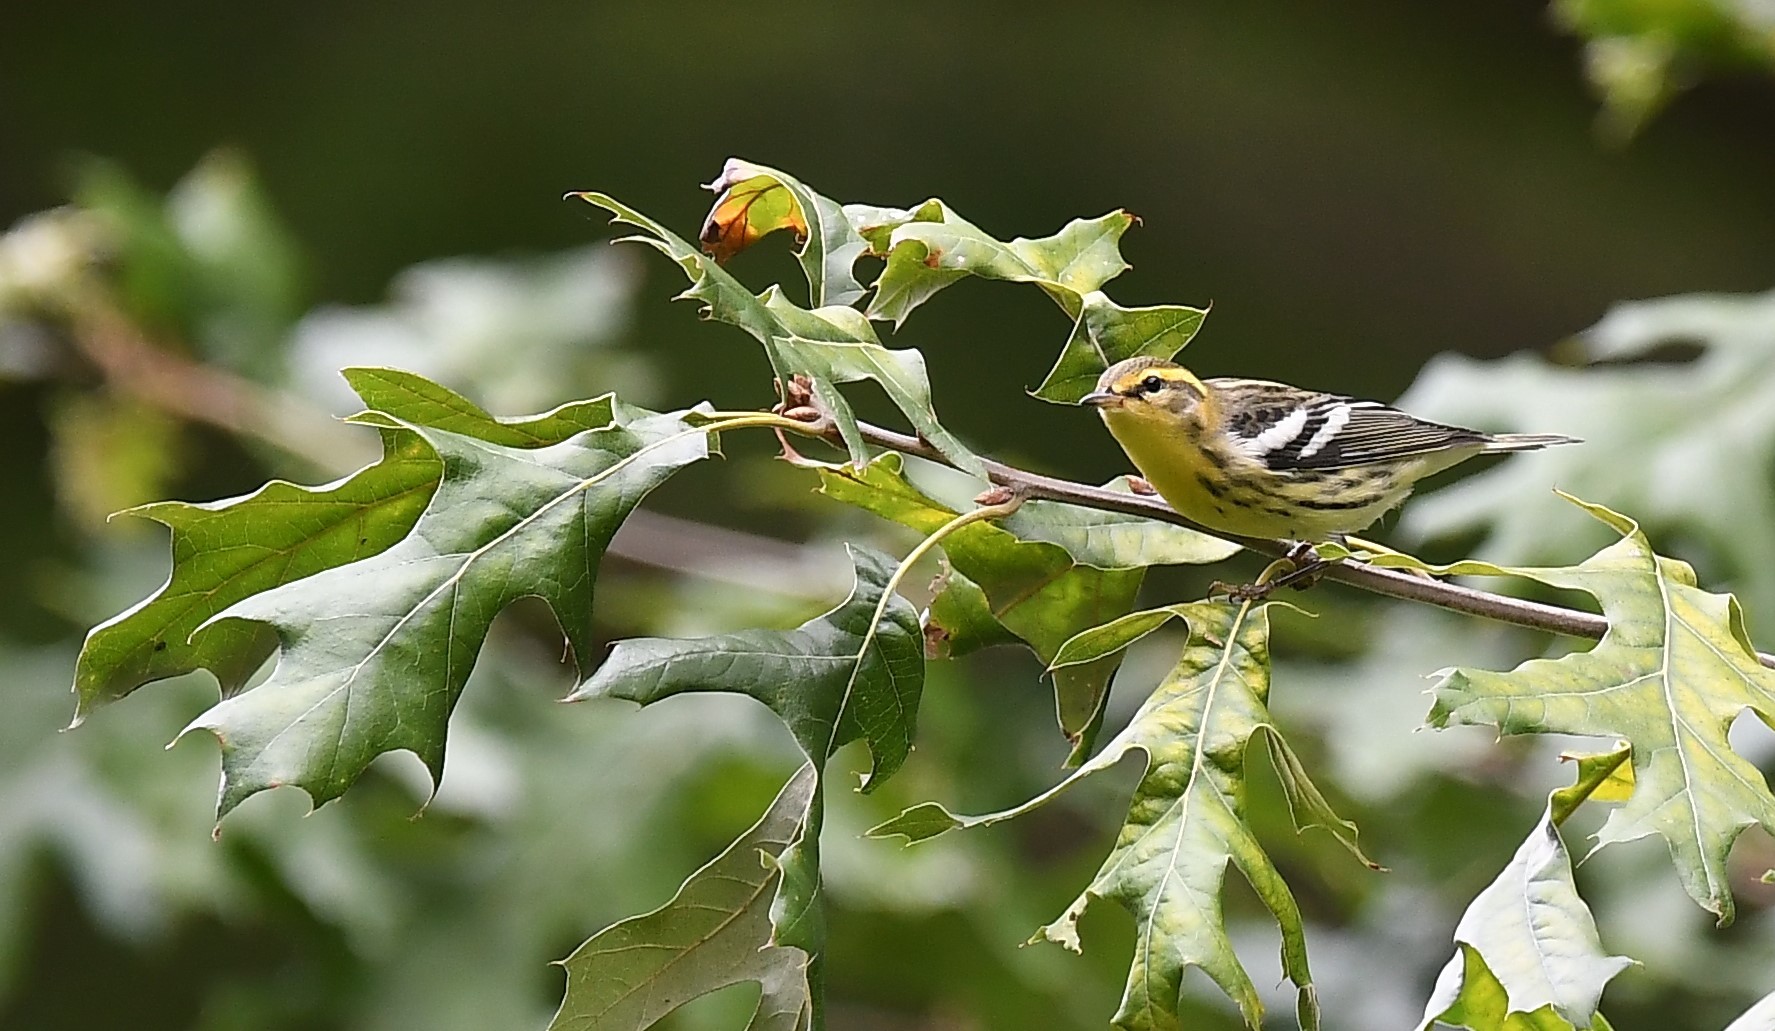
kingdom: Animalia
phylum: Chordata
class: Aves
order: Passeriformes
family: Parulidae
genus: Setophaga
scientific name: Setophaga fusca
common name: Blackburnian warbler
